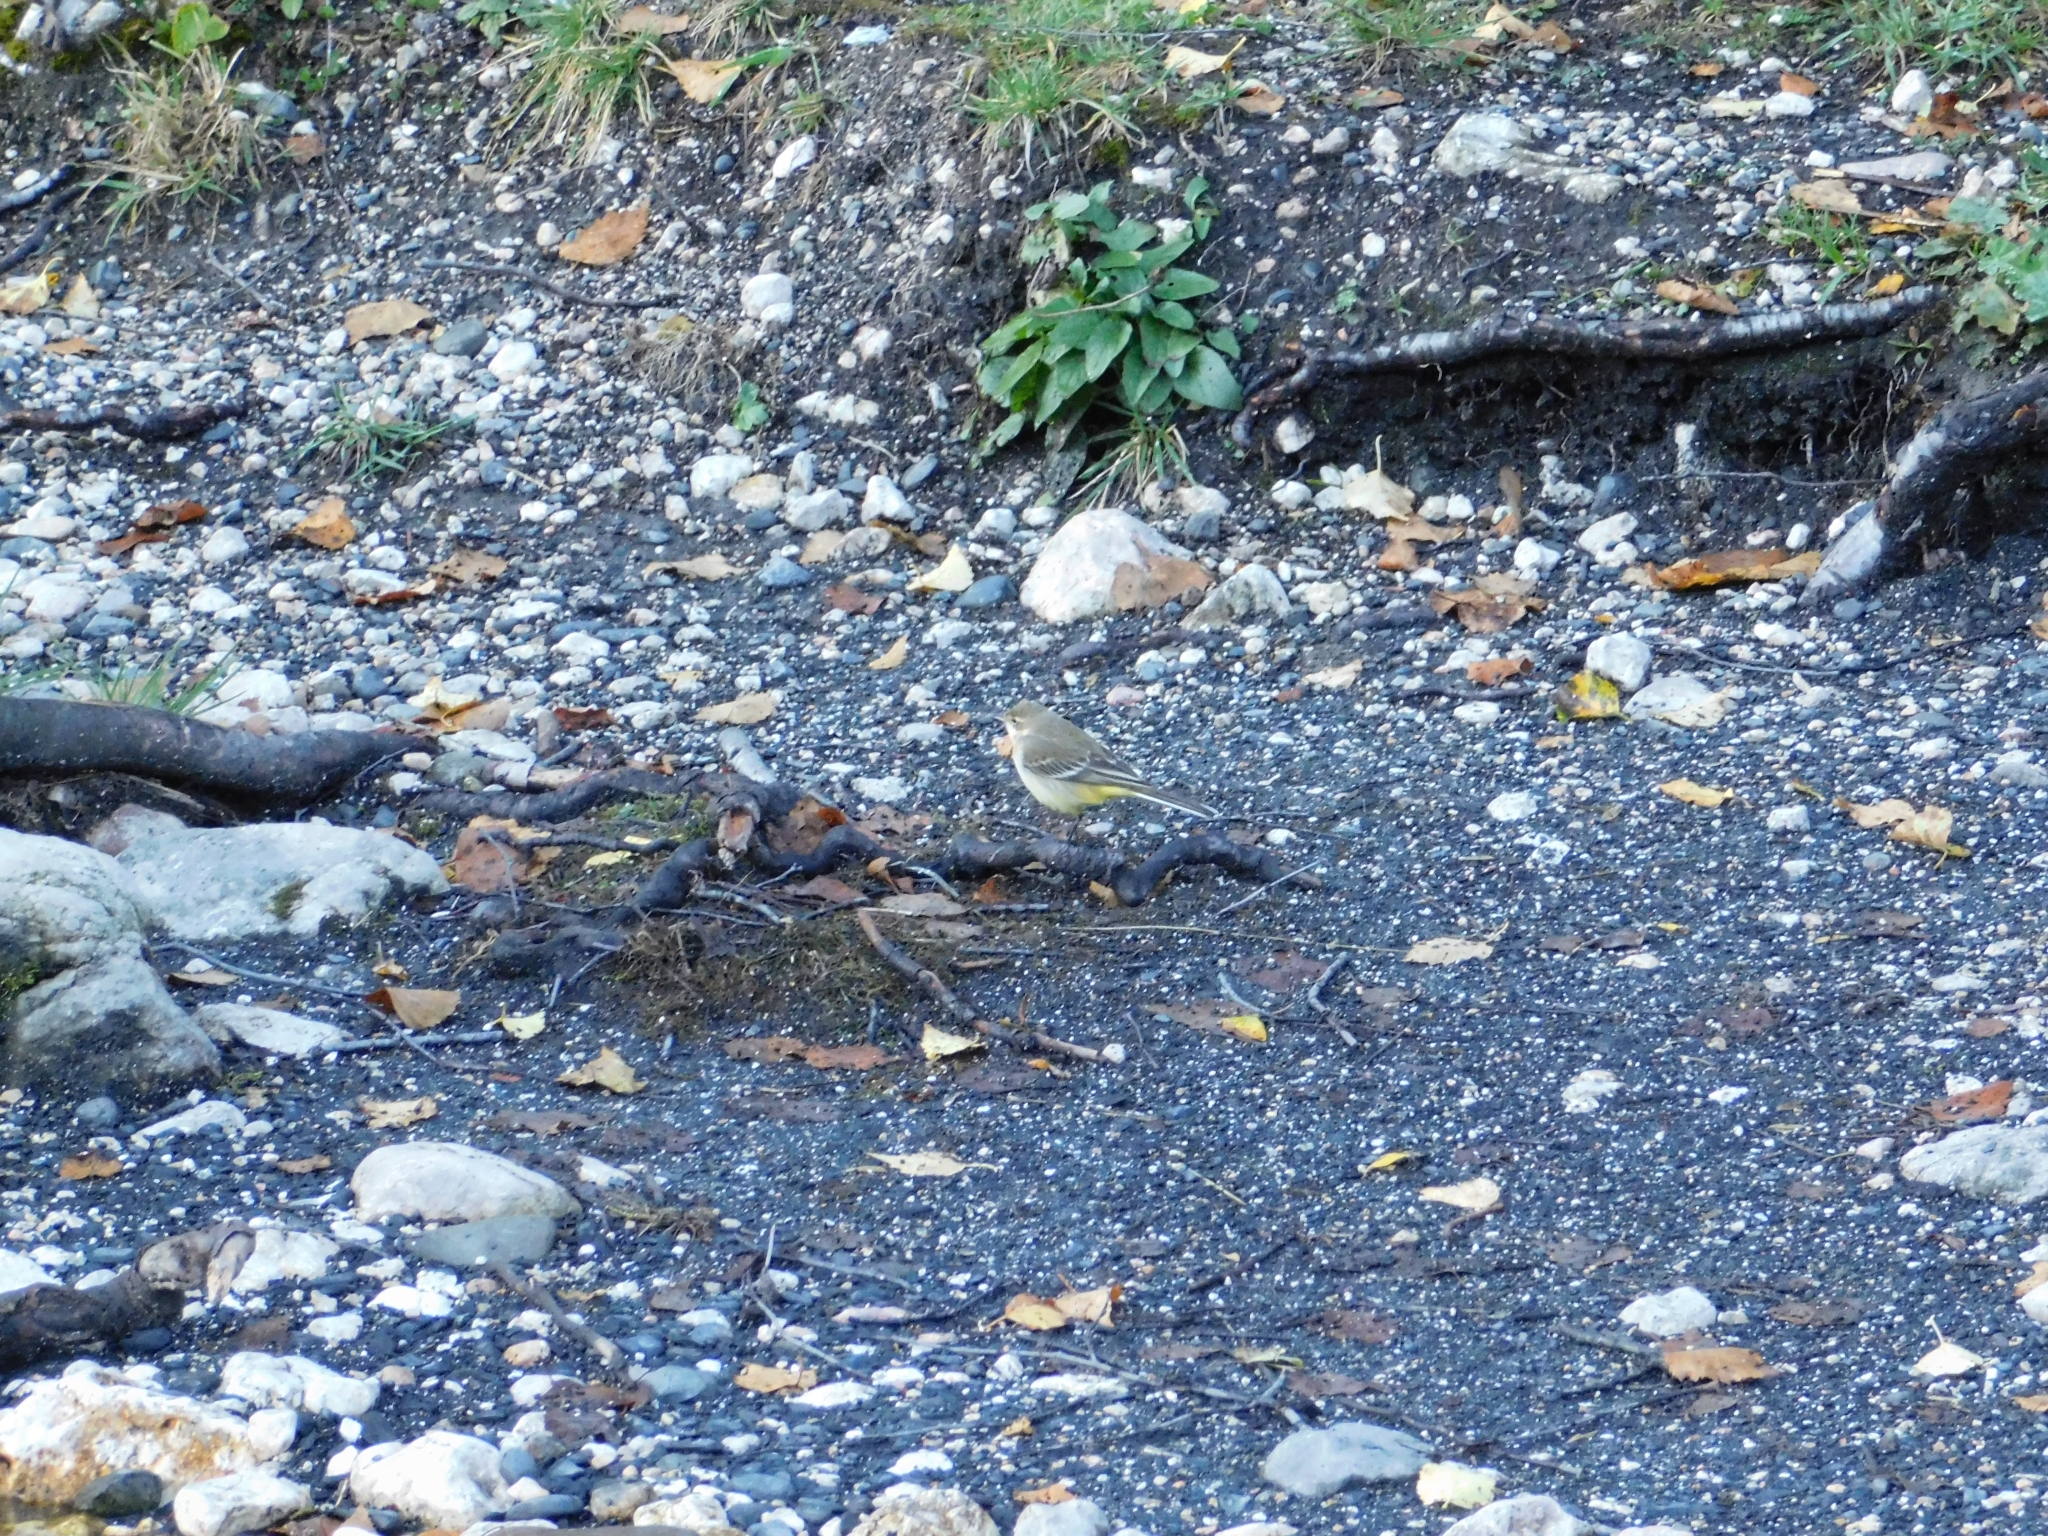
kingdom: Animalia
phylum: Chordata
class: Aves
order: Passeriformes
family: Motacillidae
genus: Motacilla
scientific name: Motacilla cinerea
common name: Grey wagtail
